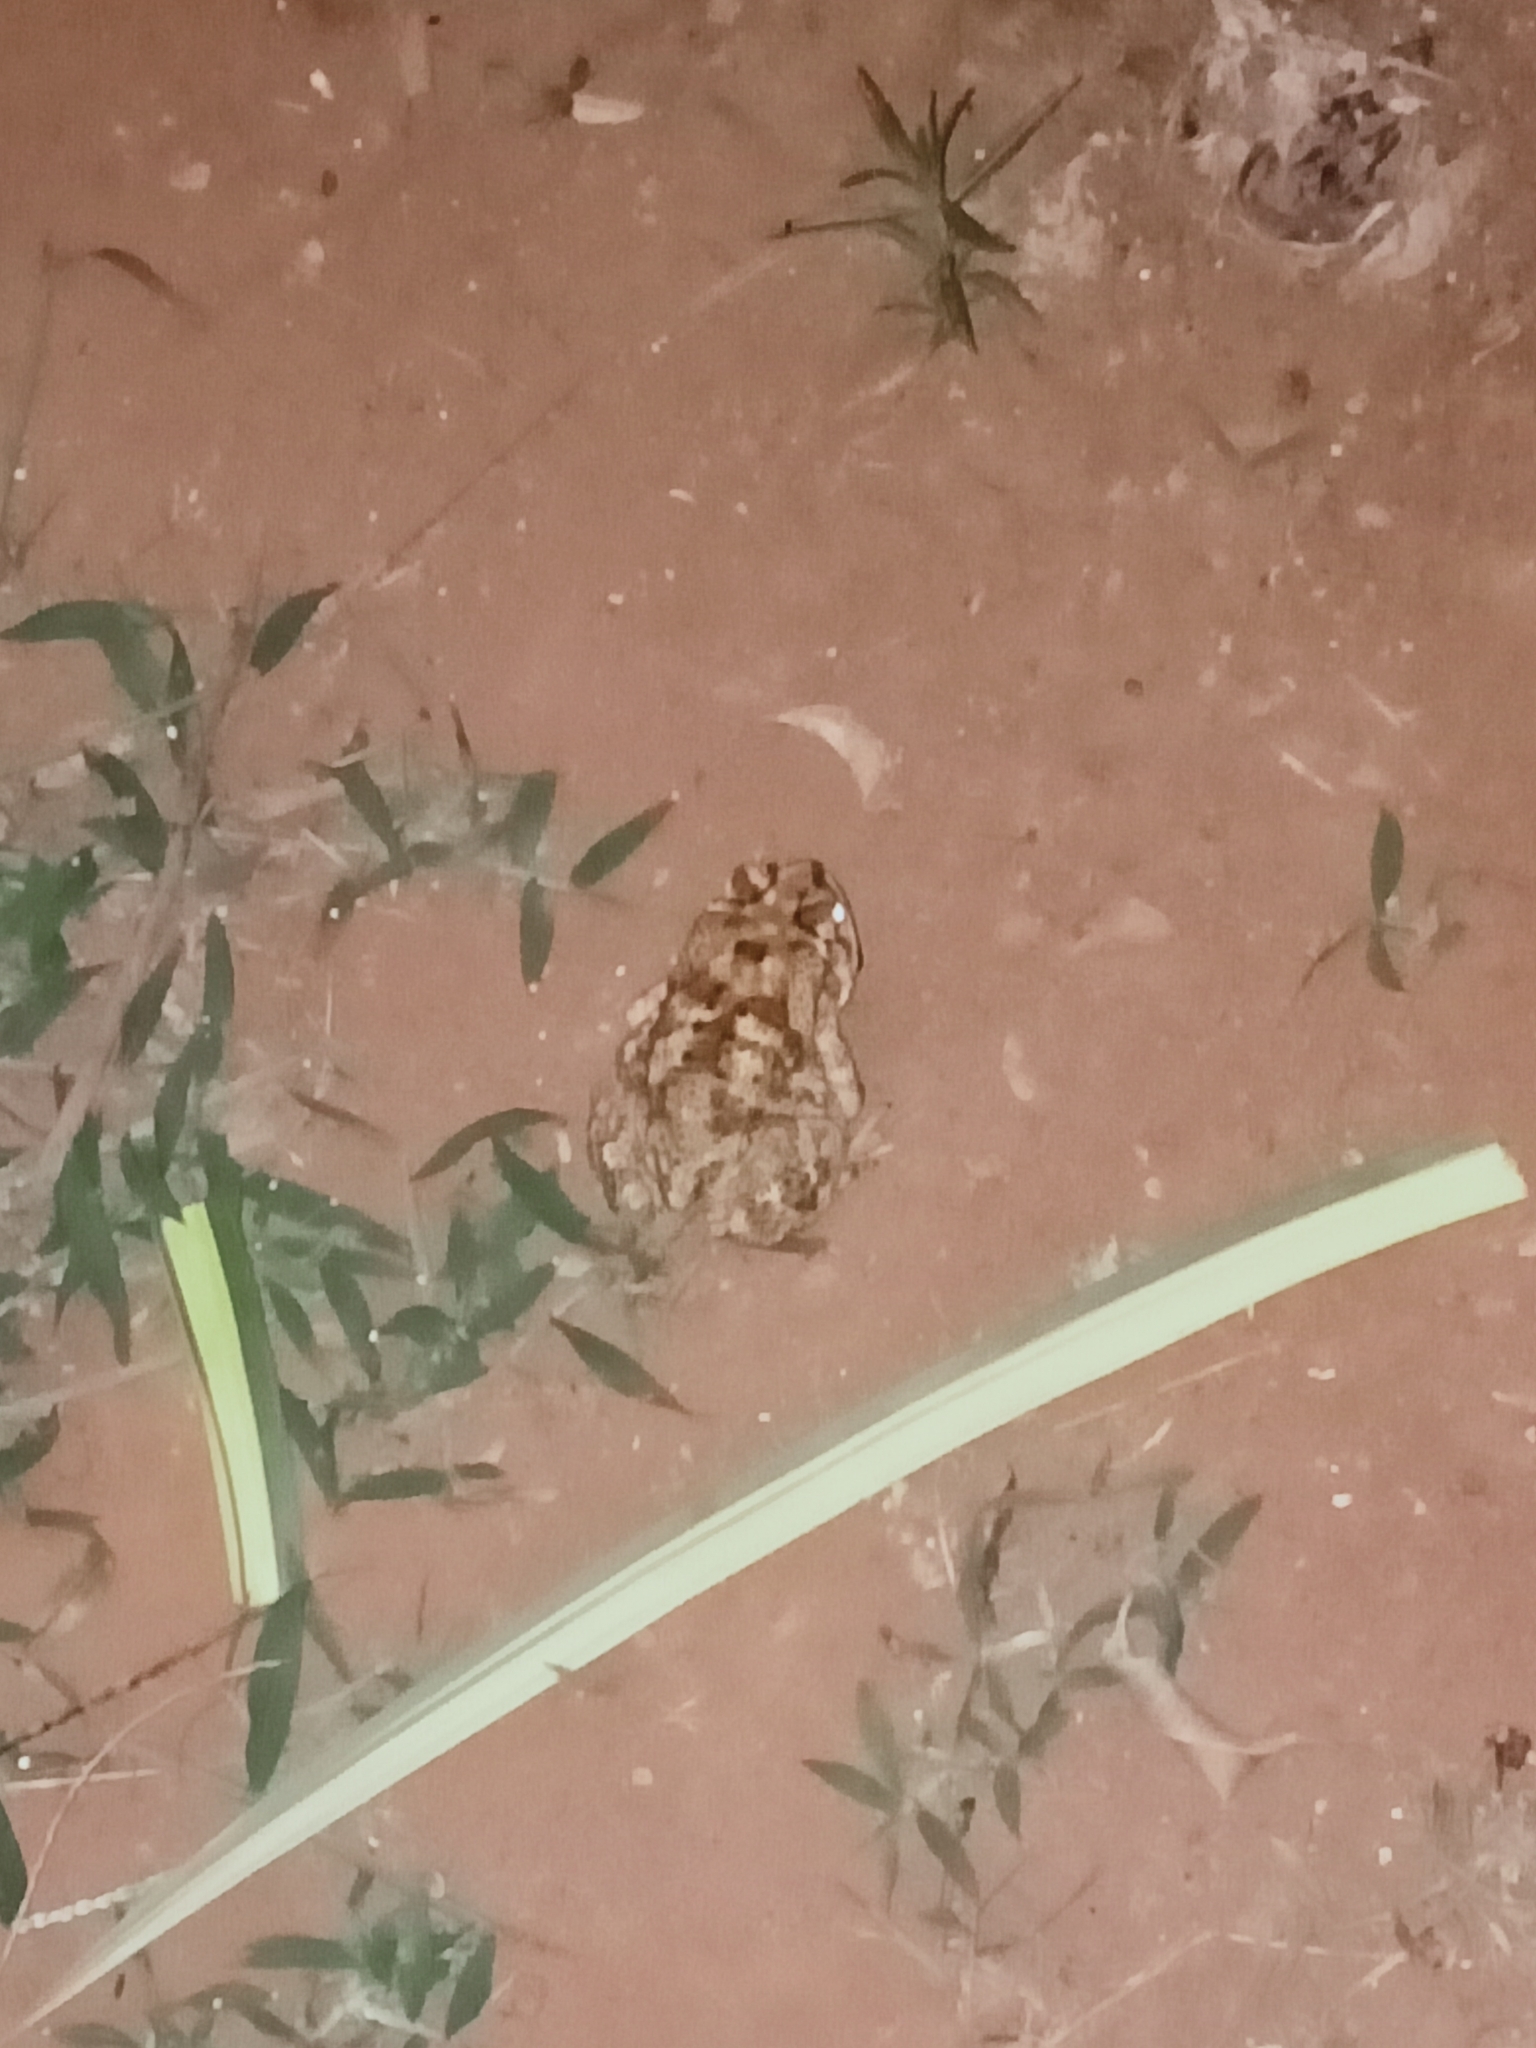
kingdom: Animalia
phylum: Chordata
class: Amphibia
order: Anura
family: Bufonidae
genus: Duttaphrynus
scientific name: Duttaphrynus melanostictus
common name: Common sunda toad
